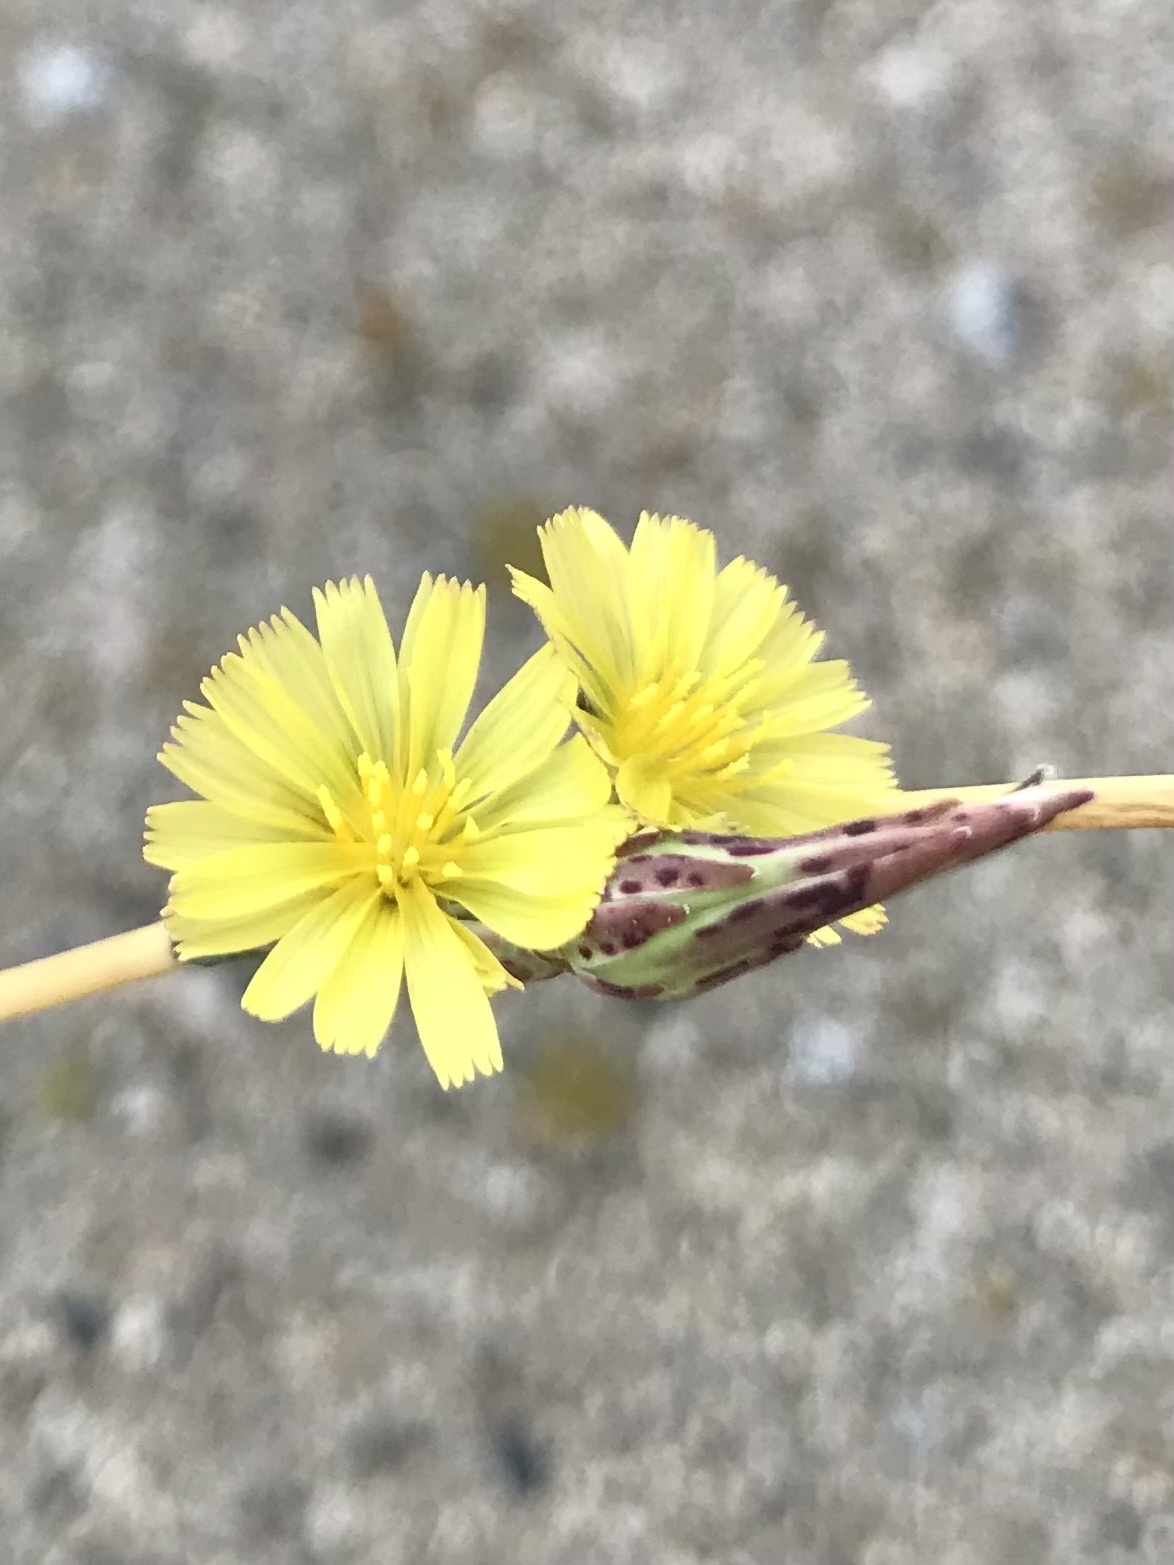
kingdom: Plantae
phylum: Tracheophyta
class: Magnoliopsida
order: Asterales
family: Asteraceae
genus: Lactuca
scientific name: Lactuca serriola
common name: Prickly lettuce
